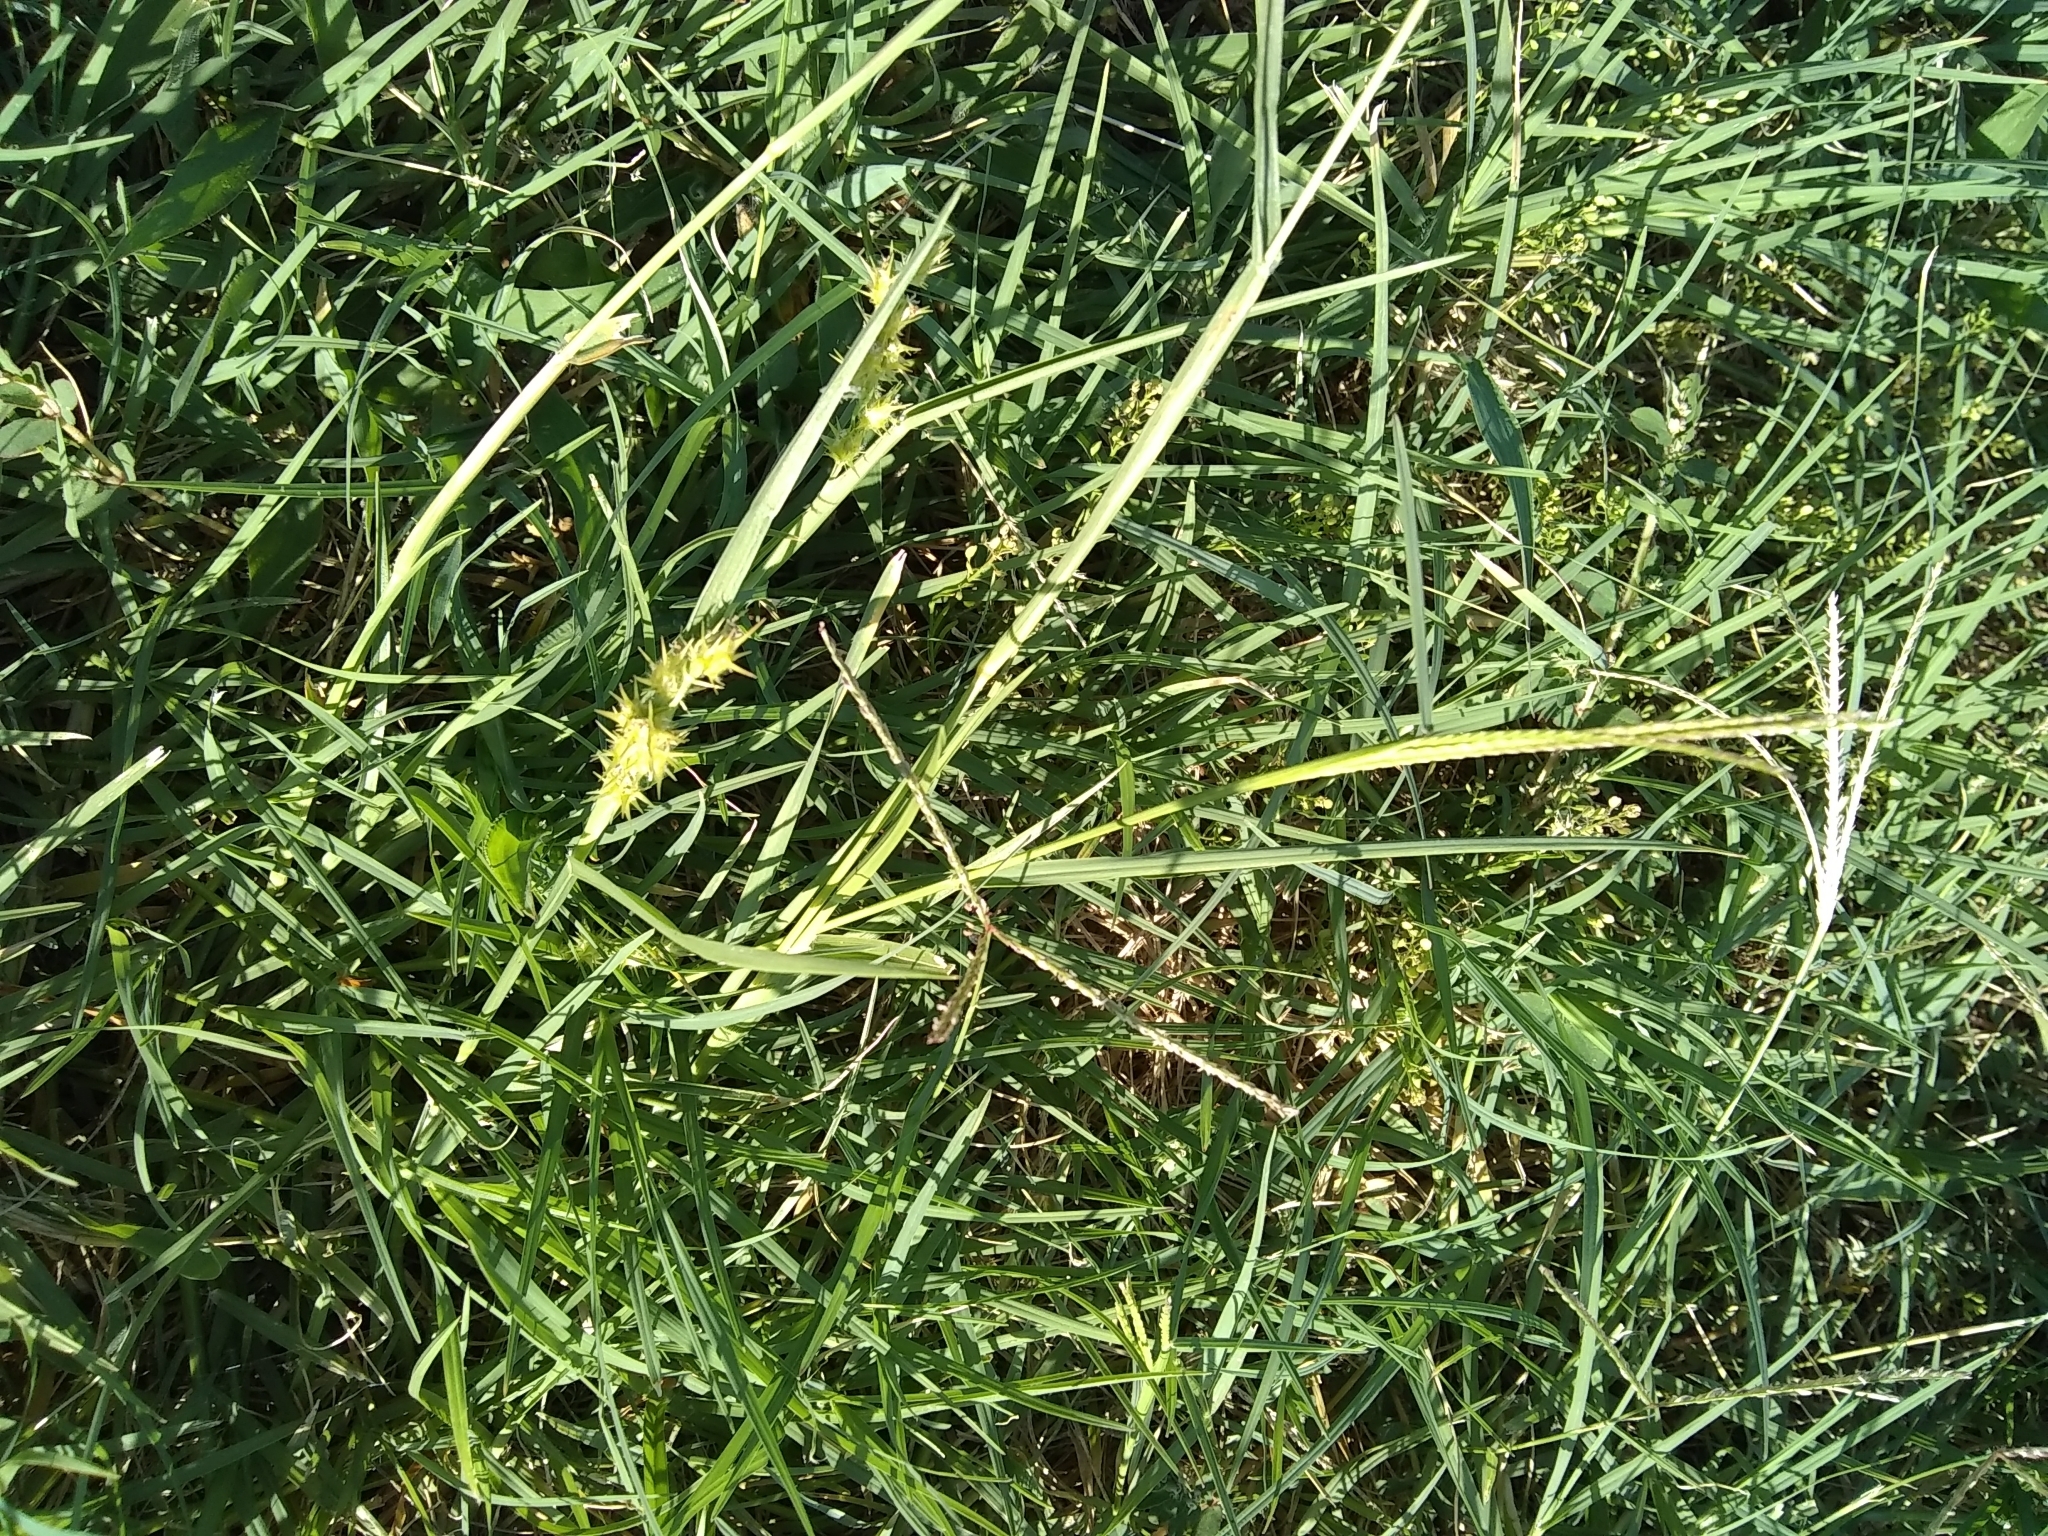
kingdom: Plantae
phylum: Tracheophyta
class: Liliopsida
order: Poales
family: Poaceae
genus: Cenchrus
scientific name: Cenchrus spinifex
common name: Coast sandbur
